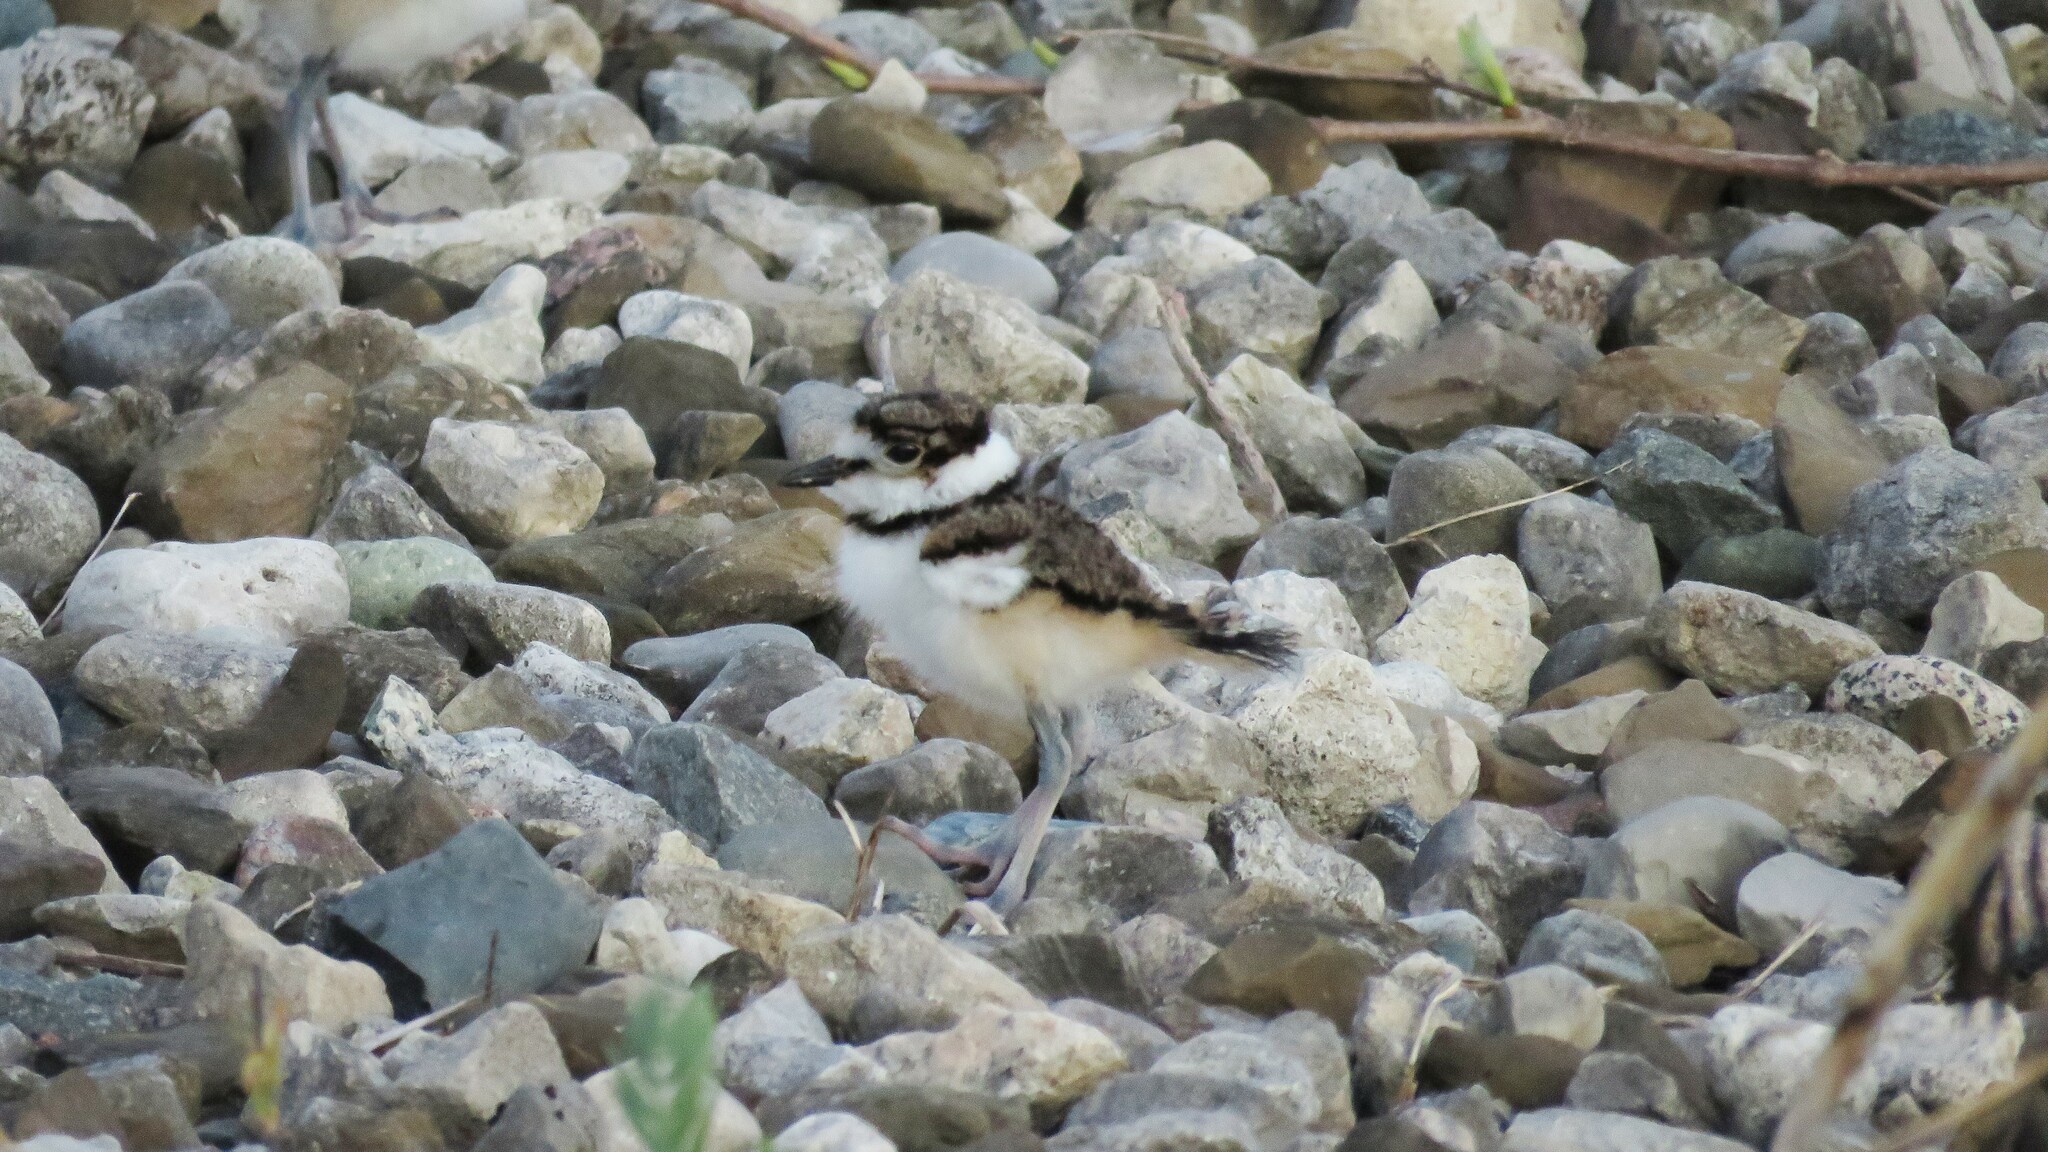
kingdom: Animalia
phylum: Chordata
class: Aves
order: Charadriiformes
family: Charadriidae
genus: Charadrius
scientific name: Charadrius vociferus
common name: Killdeer
